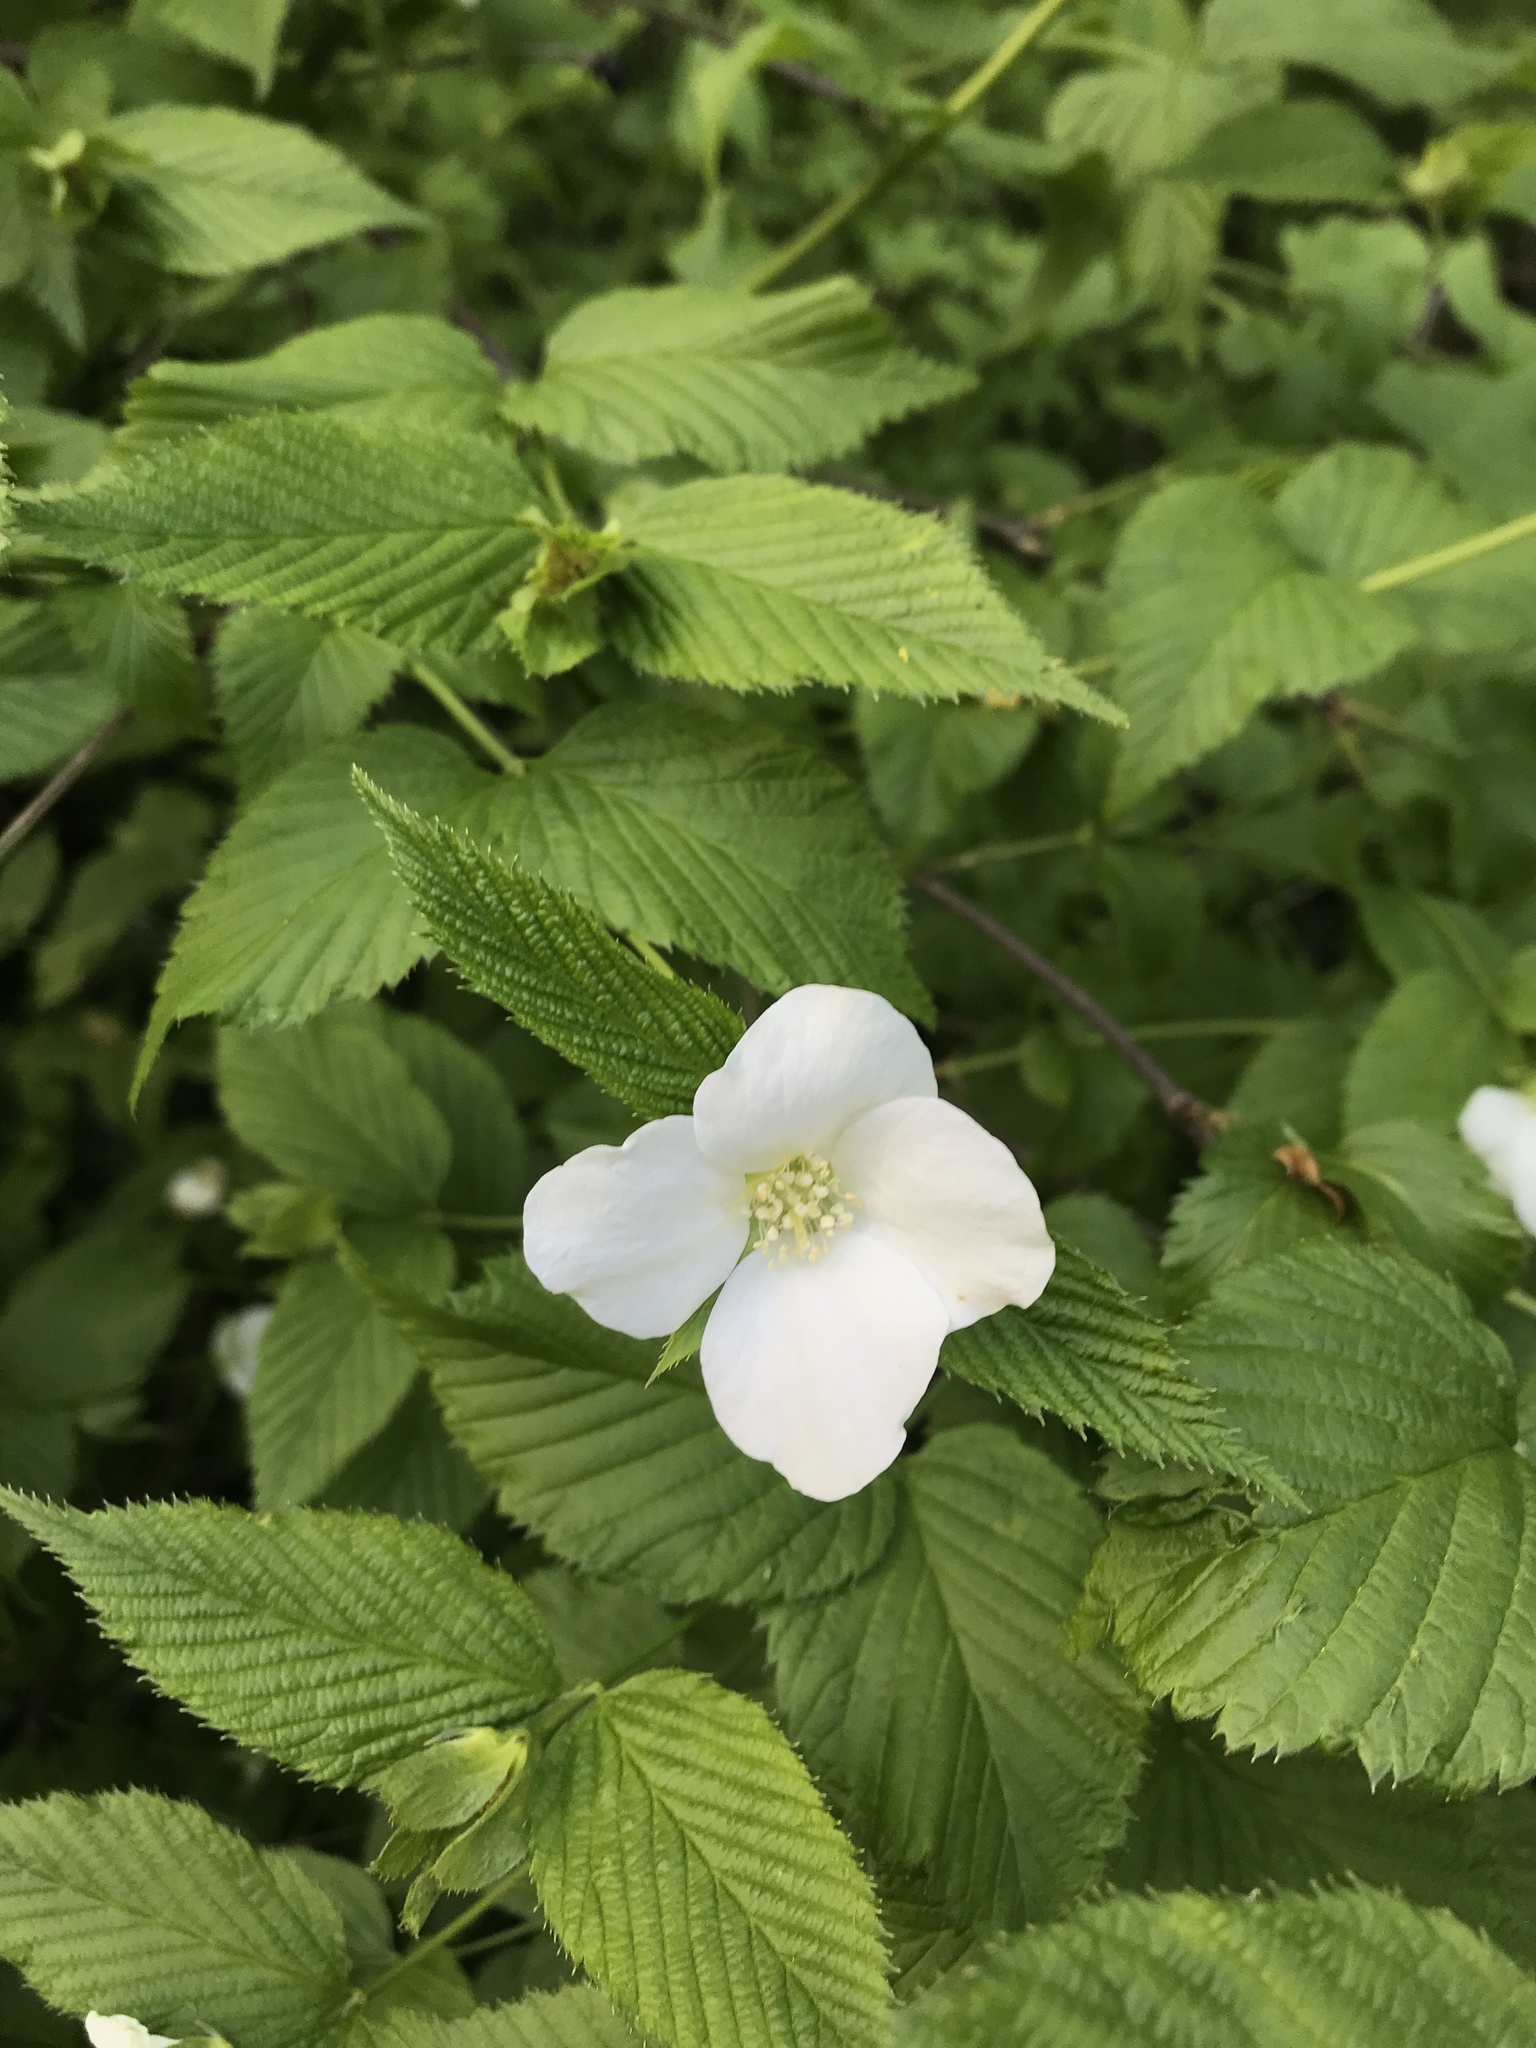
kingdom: Plantae
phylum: Tracheophyta
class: Magnoliopsida
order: Rosales
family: Rosaceae
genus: Rhodotypos
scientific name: Rhodotypos scandens
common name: Jetbead
